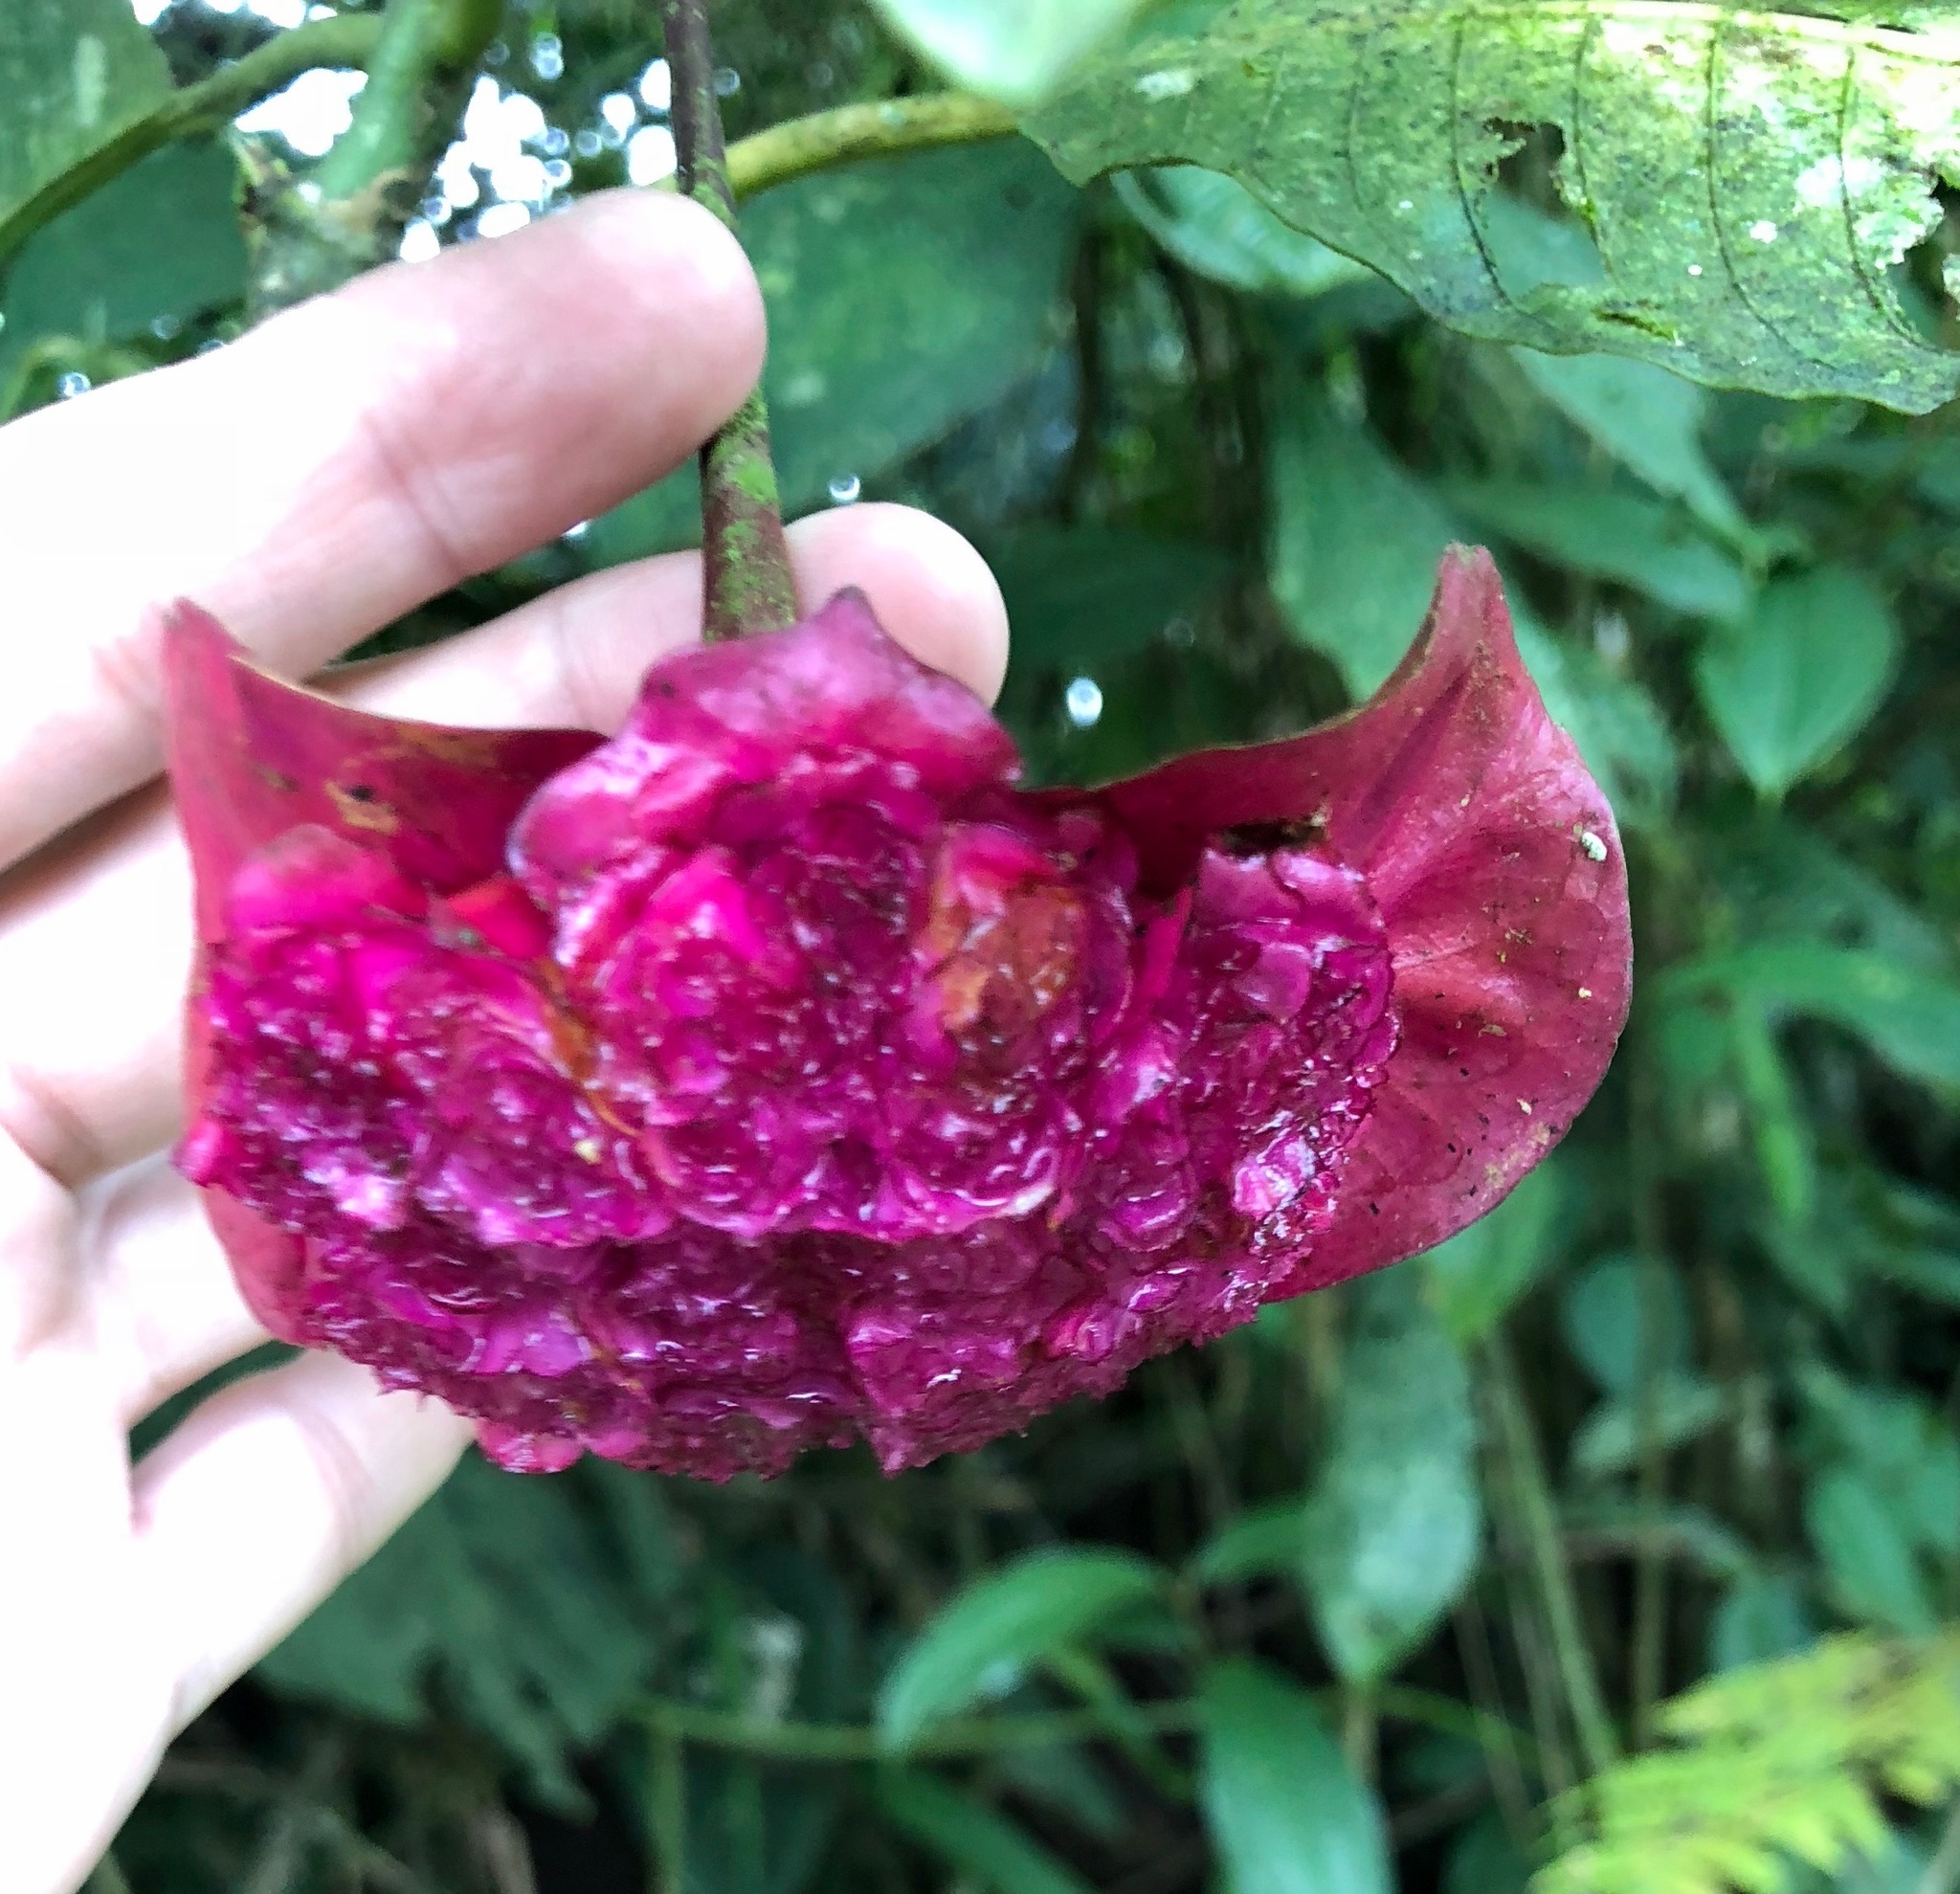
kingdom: Plantae
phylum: Tracheophyta
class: Magnoliopsida
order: Gentianales
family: Rubiaceae
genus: Palicourea
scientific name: Palicourea correae
